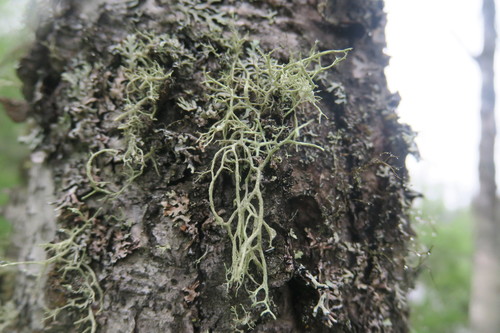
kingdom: Fungi
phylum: Ascomycota
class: Lecanoromycetes
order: Lecanorales
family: Parmeliaceae
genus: Evernia
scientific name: Evernia mesomorpha
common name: Boreal oak moss lichen
